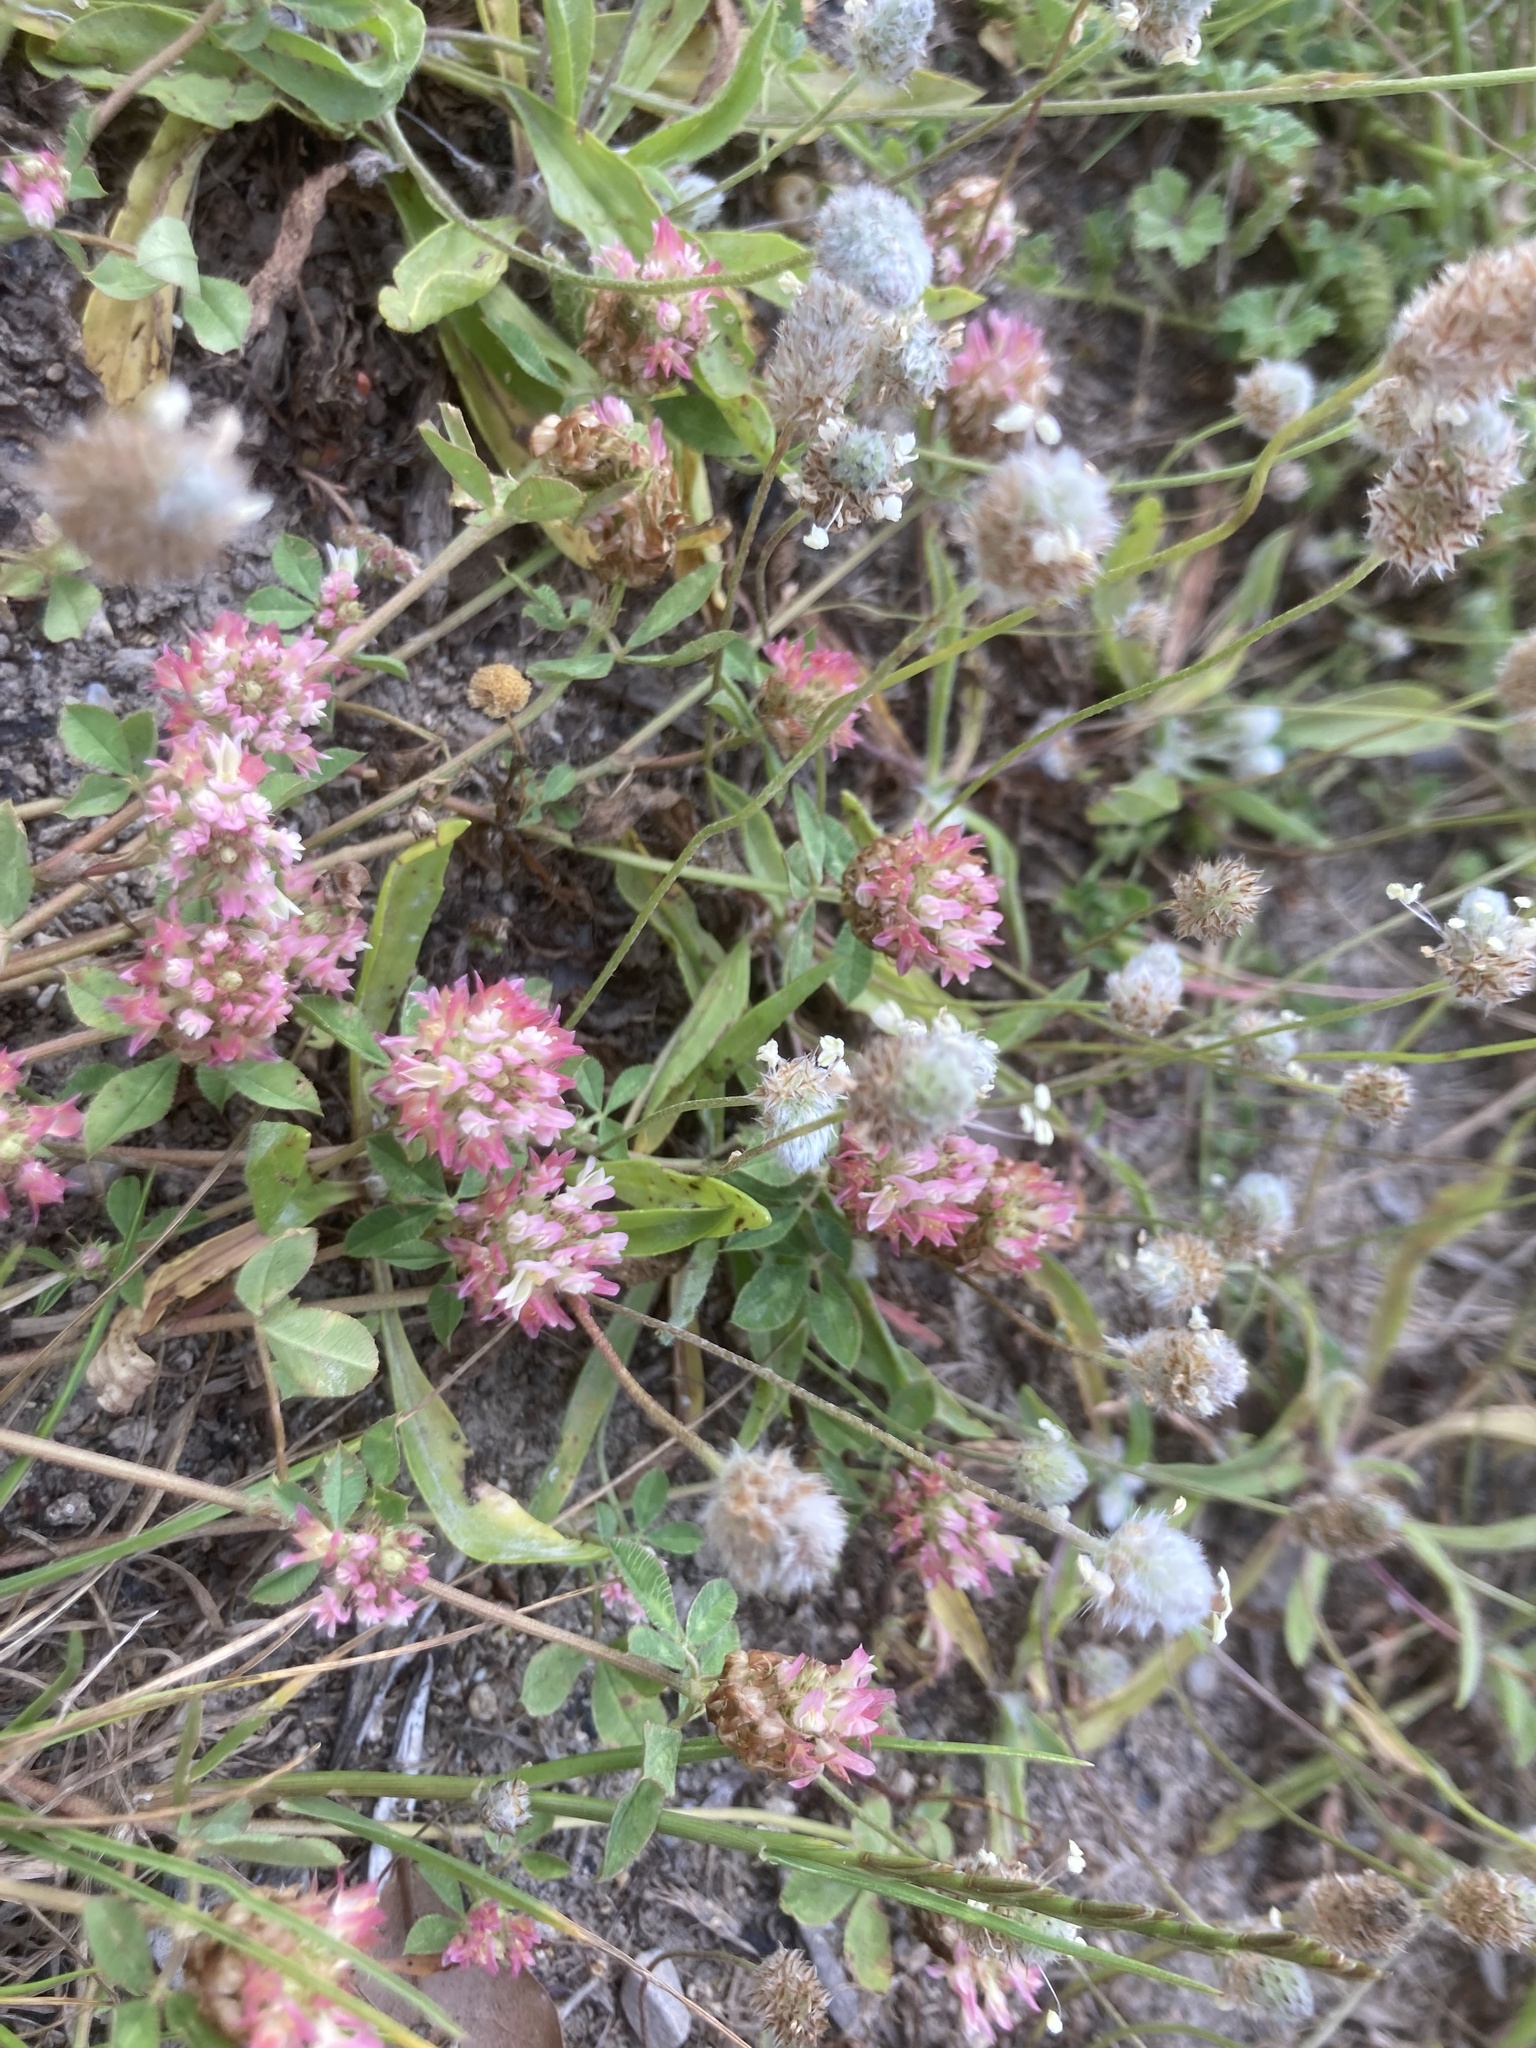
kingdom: Plantae
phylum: Tracheophyta
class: Magnoliopsida
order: Fabales
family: Fabaceae
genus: Trifolium
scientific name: Trifolium argutum
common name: Sharp-tooth clover
